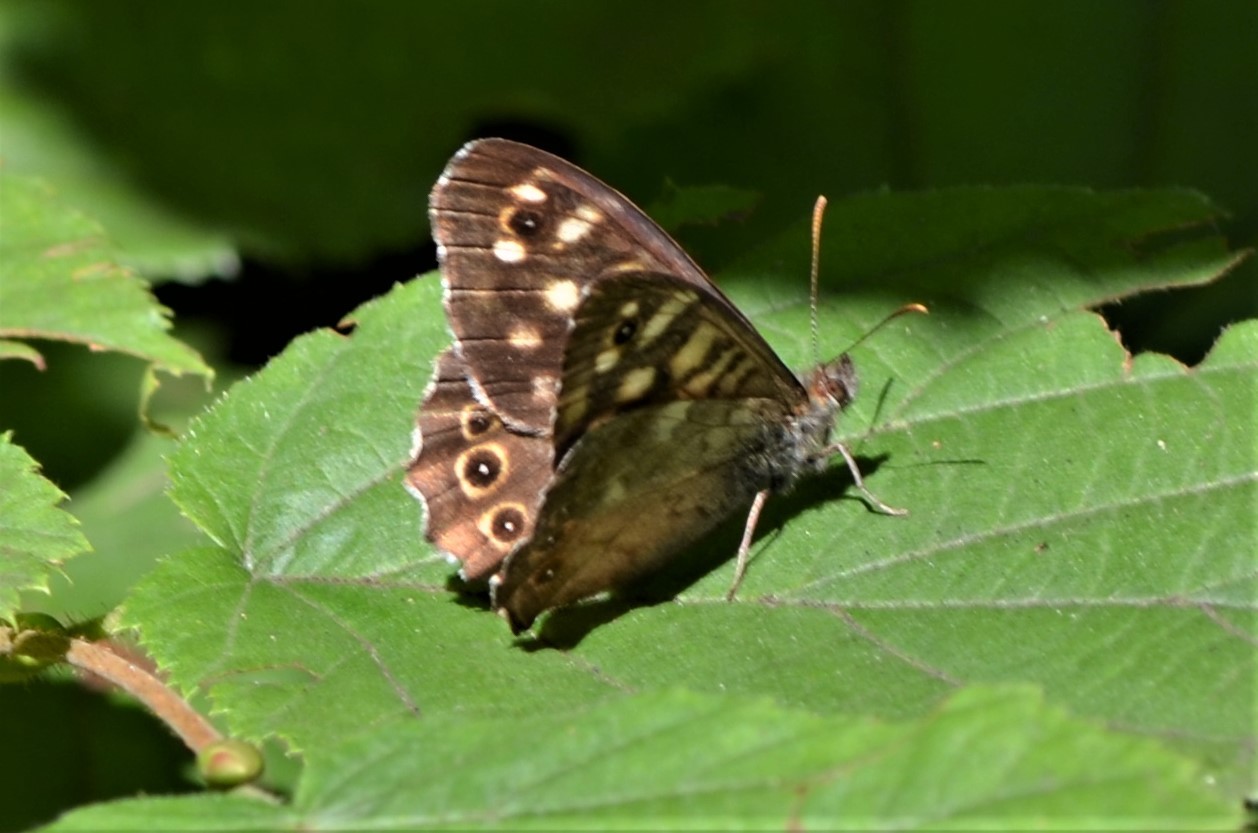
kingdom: Animalia
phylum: Arthropoda
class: Insecta
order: Lepidoptera
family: Nymphalidae
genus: Pararge
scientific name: Pararge aegeria
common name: Speckled wood
